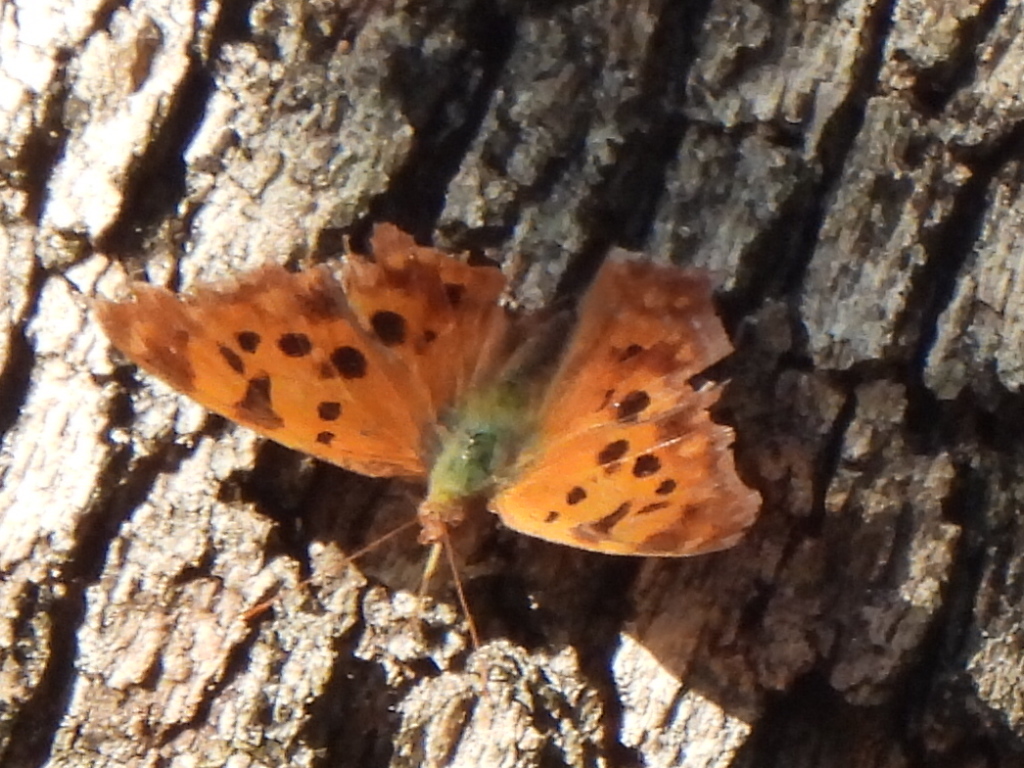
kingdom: Animalia
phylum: Arthropoda
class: Insecta
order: Lepidoptera
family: Nymphalidae
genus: Polygonia
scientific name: Polygonia interrogationis
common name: Question mark
